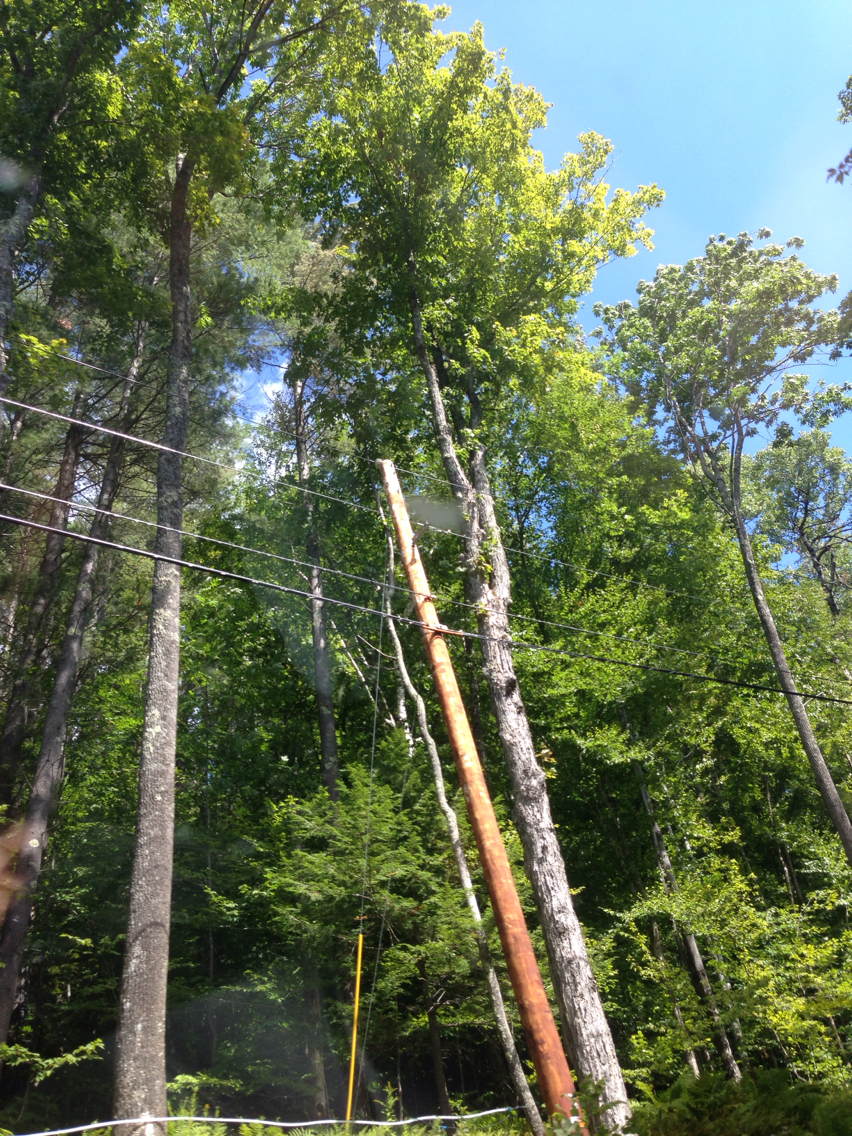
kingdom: Plantae
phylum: Tracheophyta
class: Magnoliopsida
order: Sapindales
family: Sapindaceae
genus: Acer
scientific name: Acer saccharum
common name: Sugar maple
